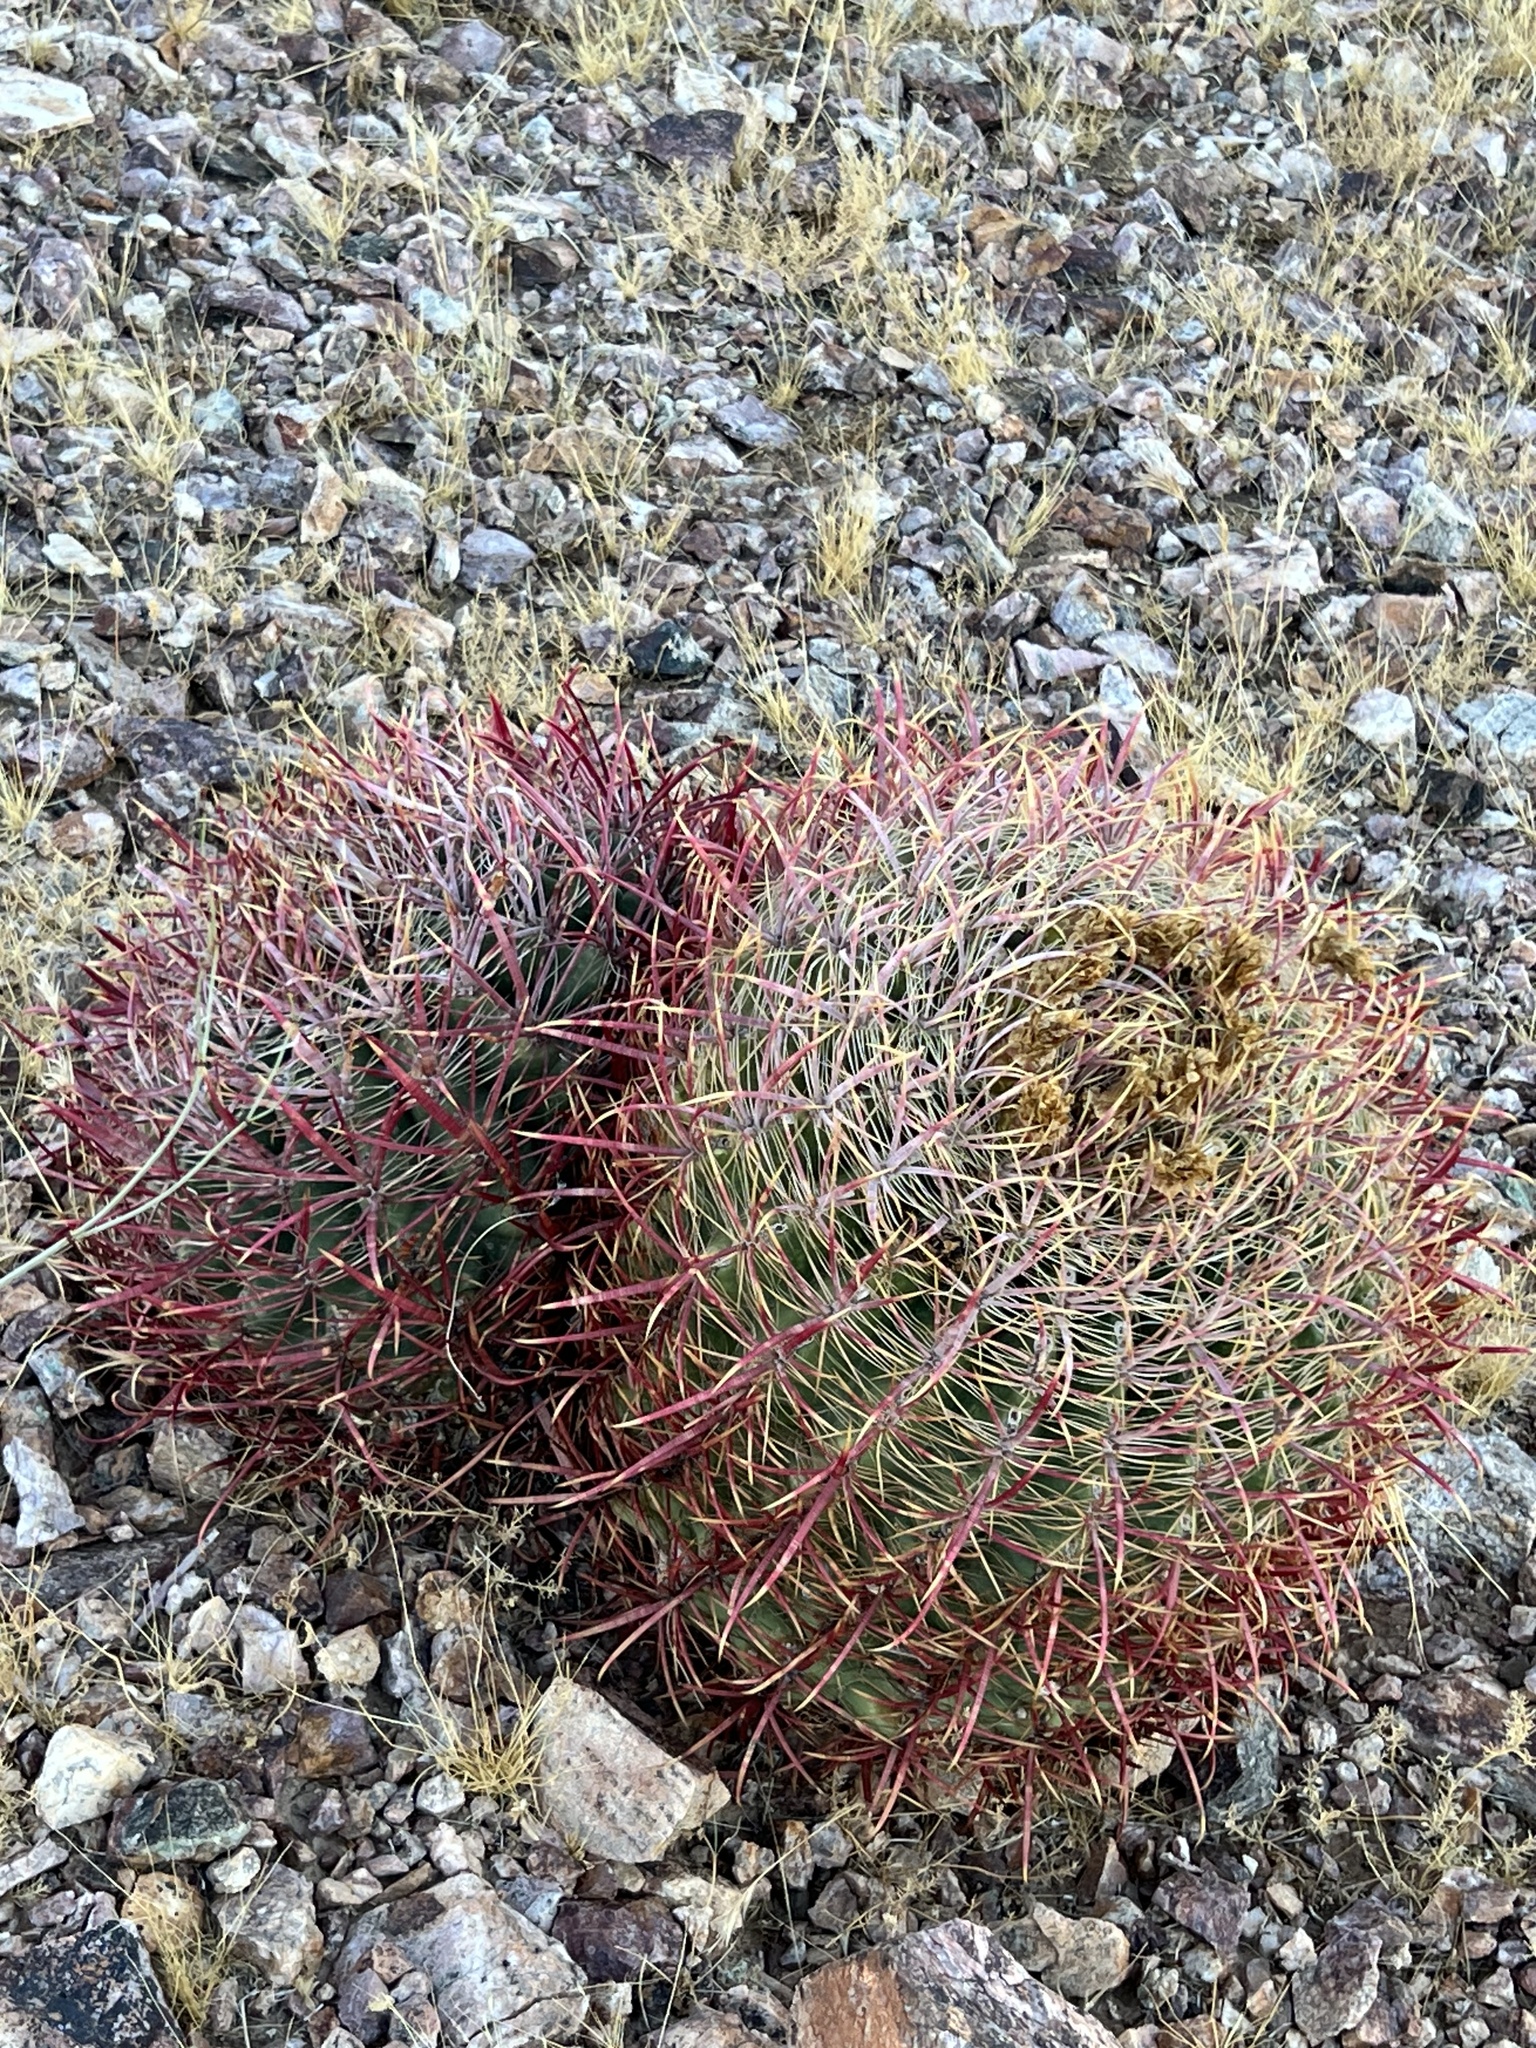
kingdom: Plantae
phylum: Tracheophyta
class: Magnoliopsida
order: Caryophyllales
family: Cactaceae
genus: Ferocactus
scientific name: Ferocactus cylindraceus
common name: California barrel cactus
